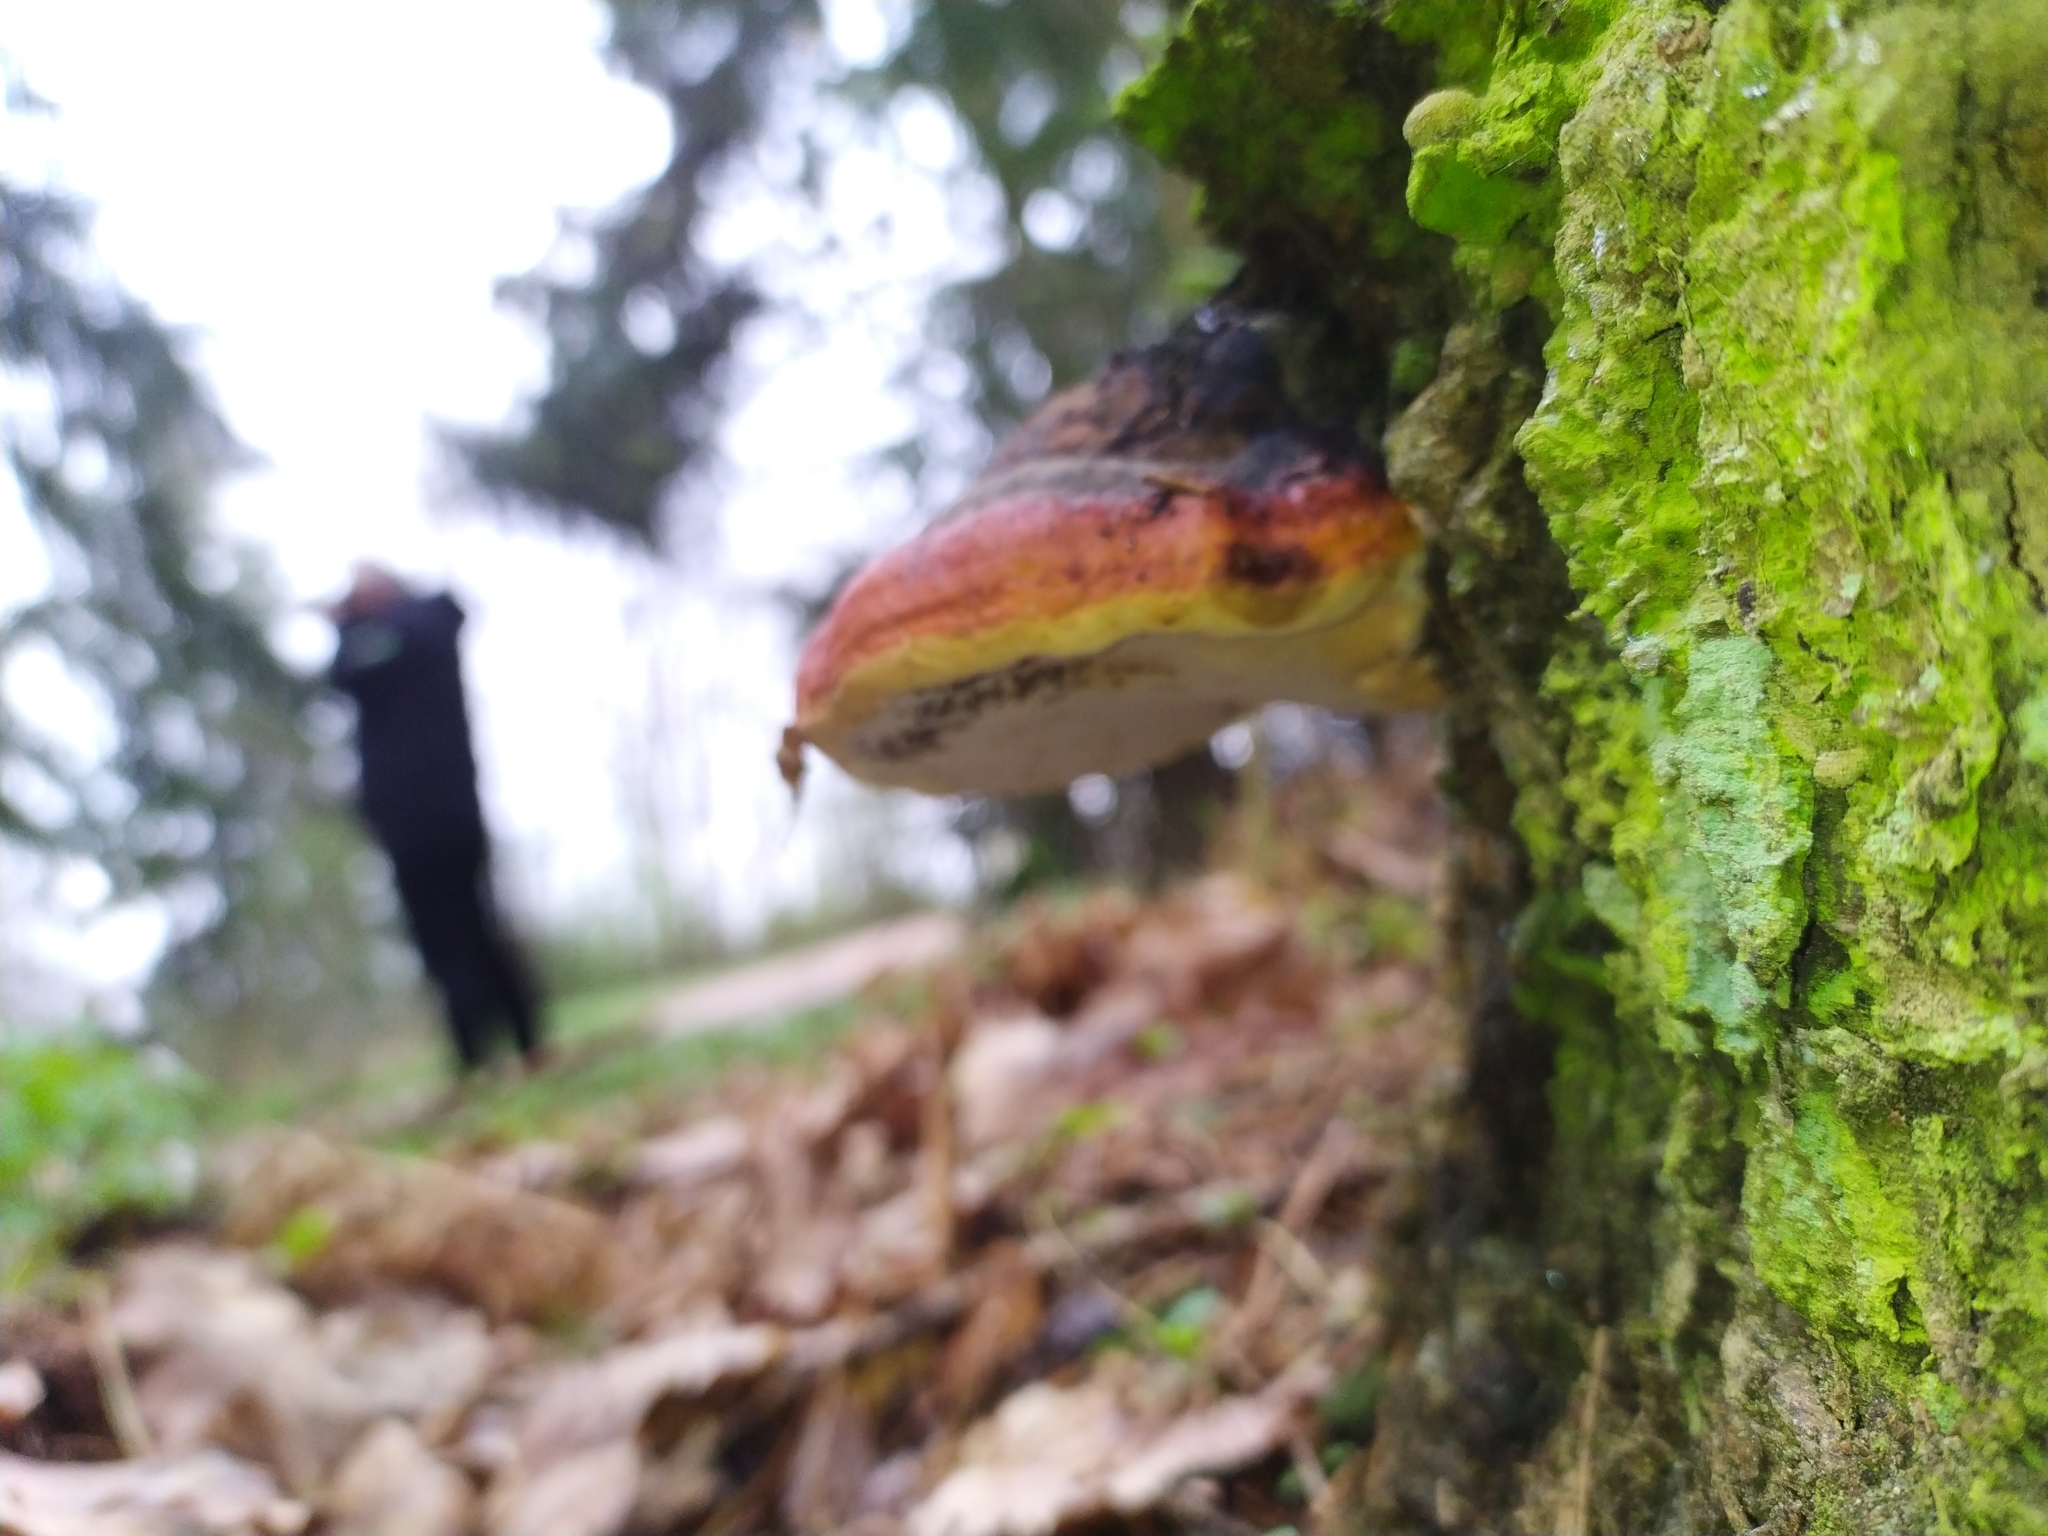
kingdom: Fungi
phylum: Basidiomycota
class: Agaricomycetes
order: Polyporales
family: Fomitopsidaceae
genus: Fomitopsis
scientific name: Fomitopsis pinicola
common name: Red-belted bracket
